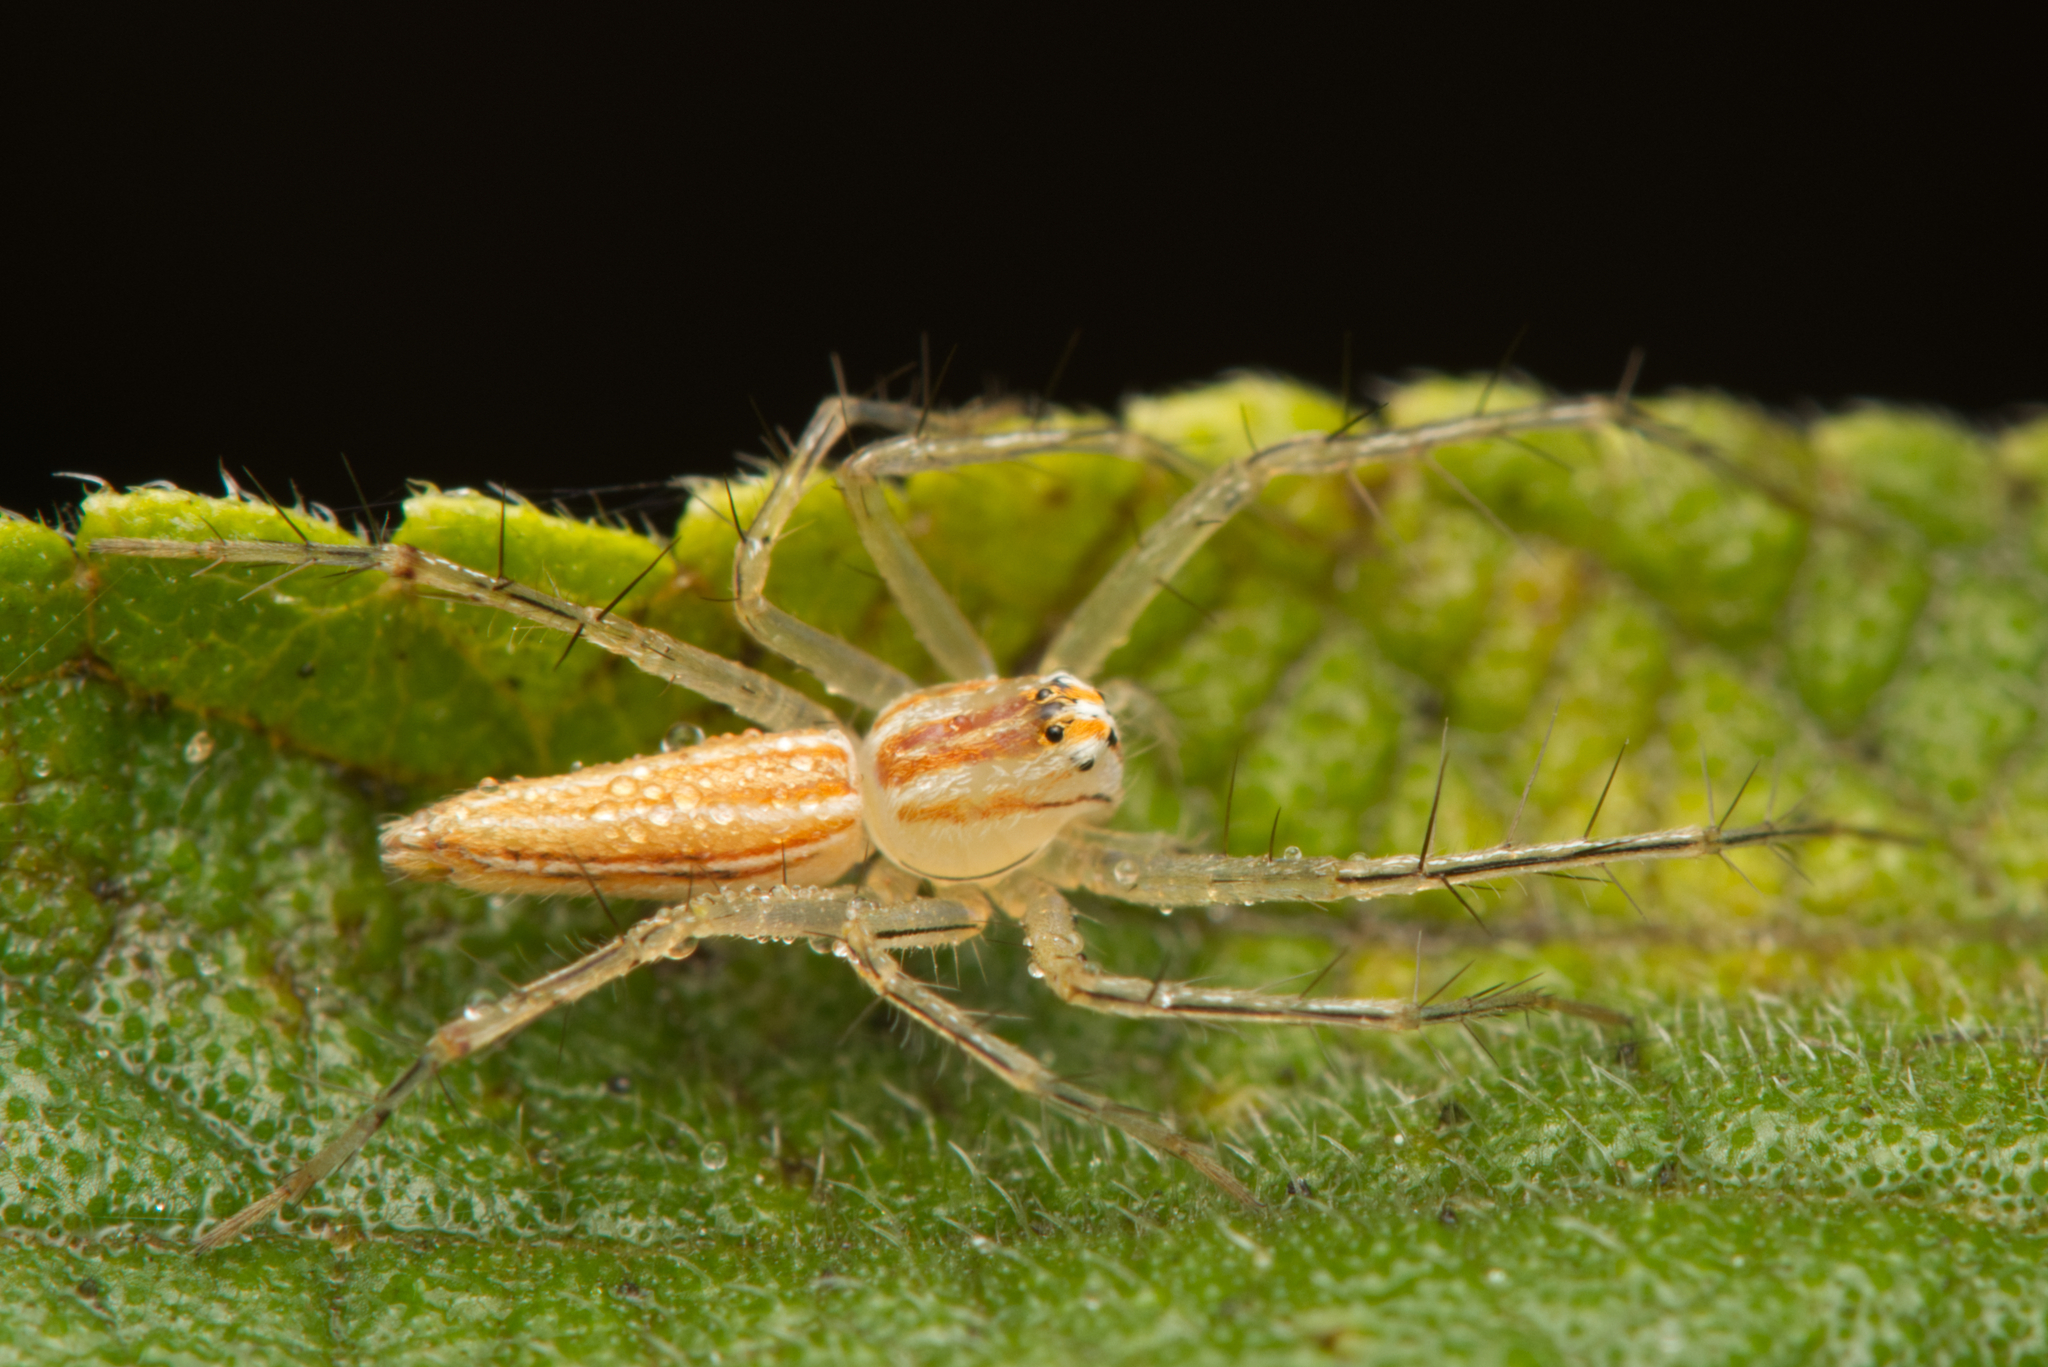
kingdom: Animalia
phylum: Arthropoda
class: Arachnida
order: Araneae
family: Oxyopidae
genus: Oxyopes
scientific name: Oxyopes macilentus
